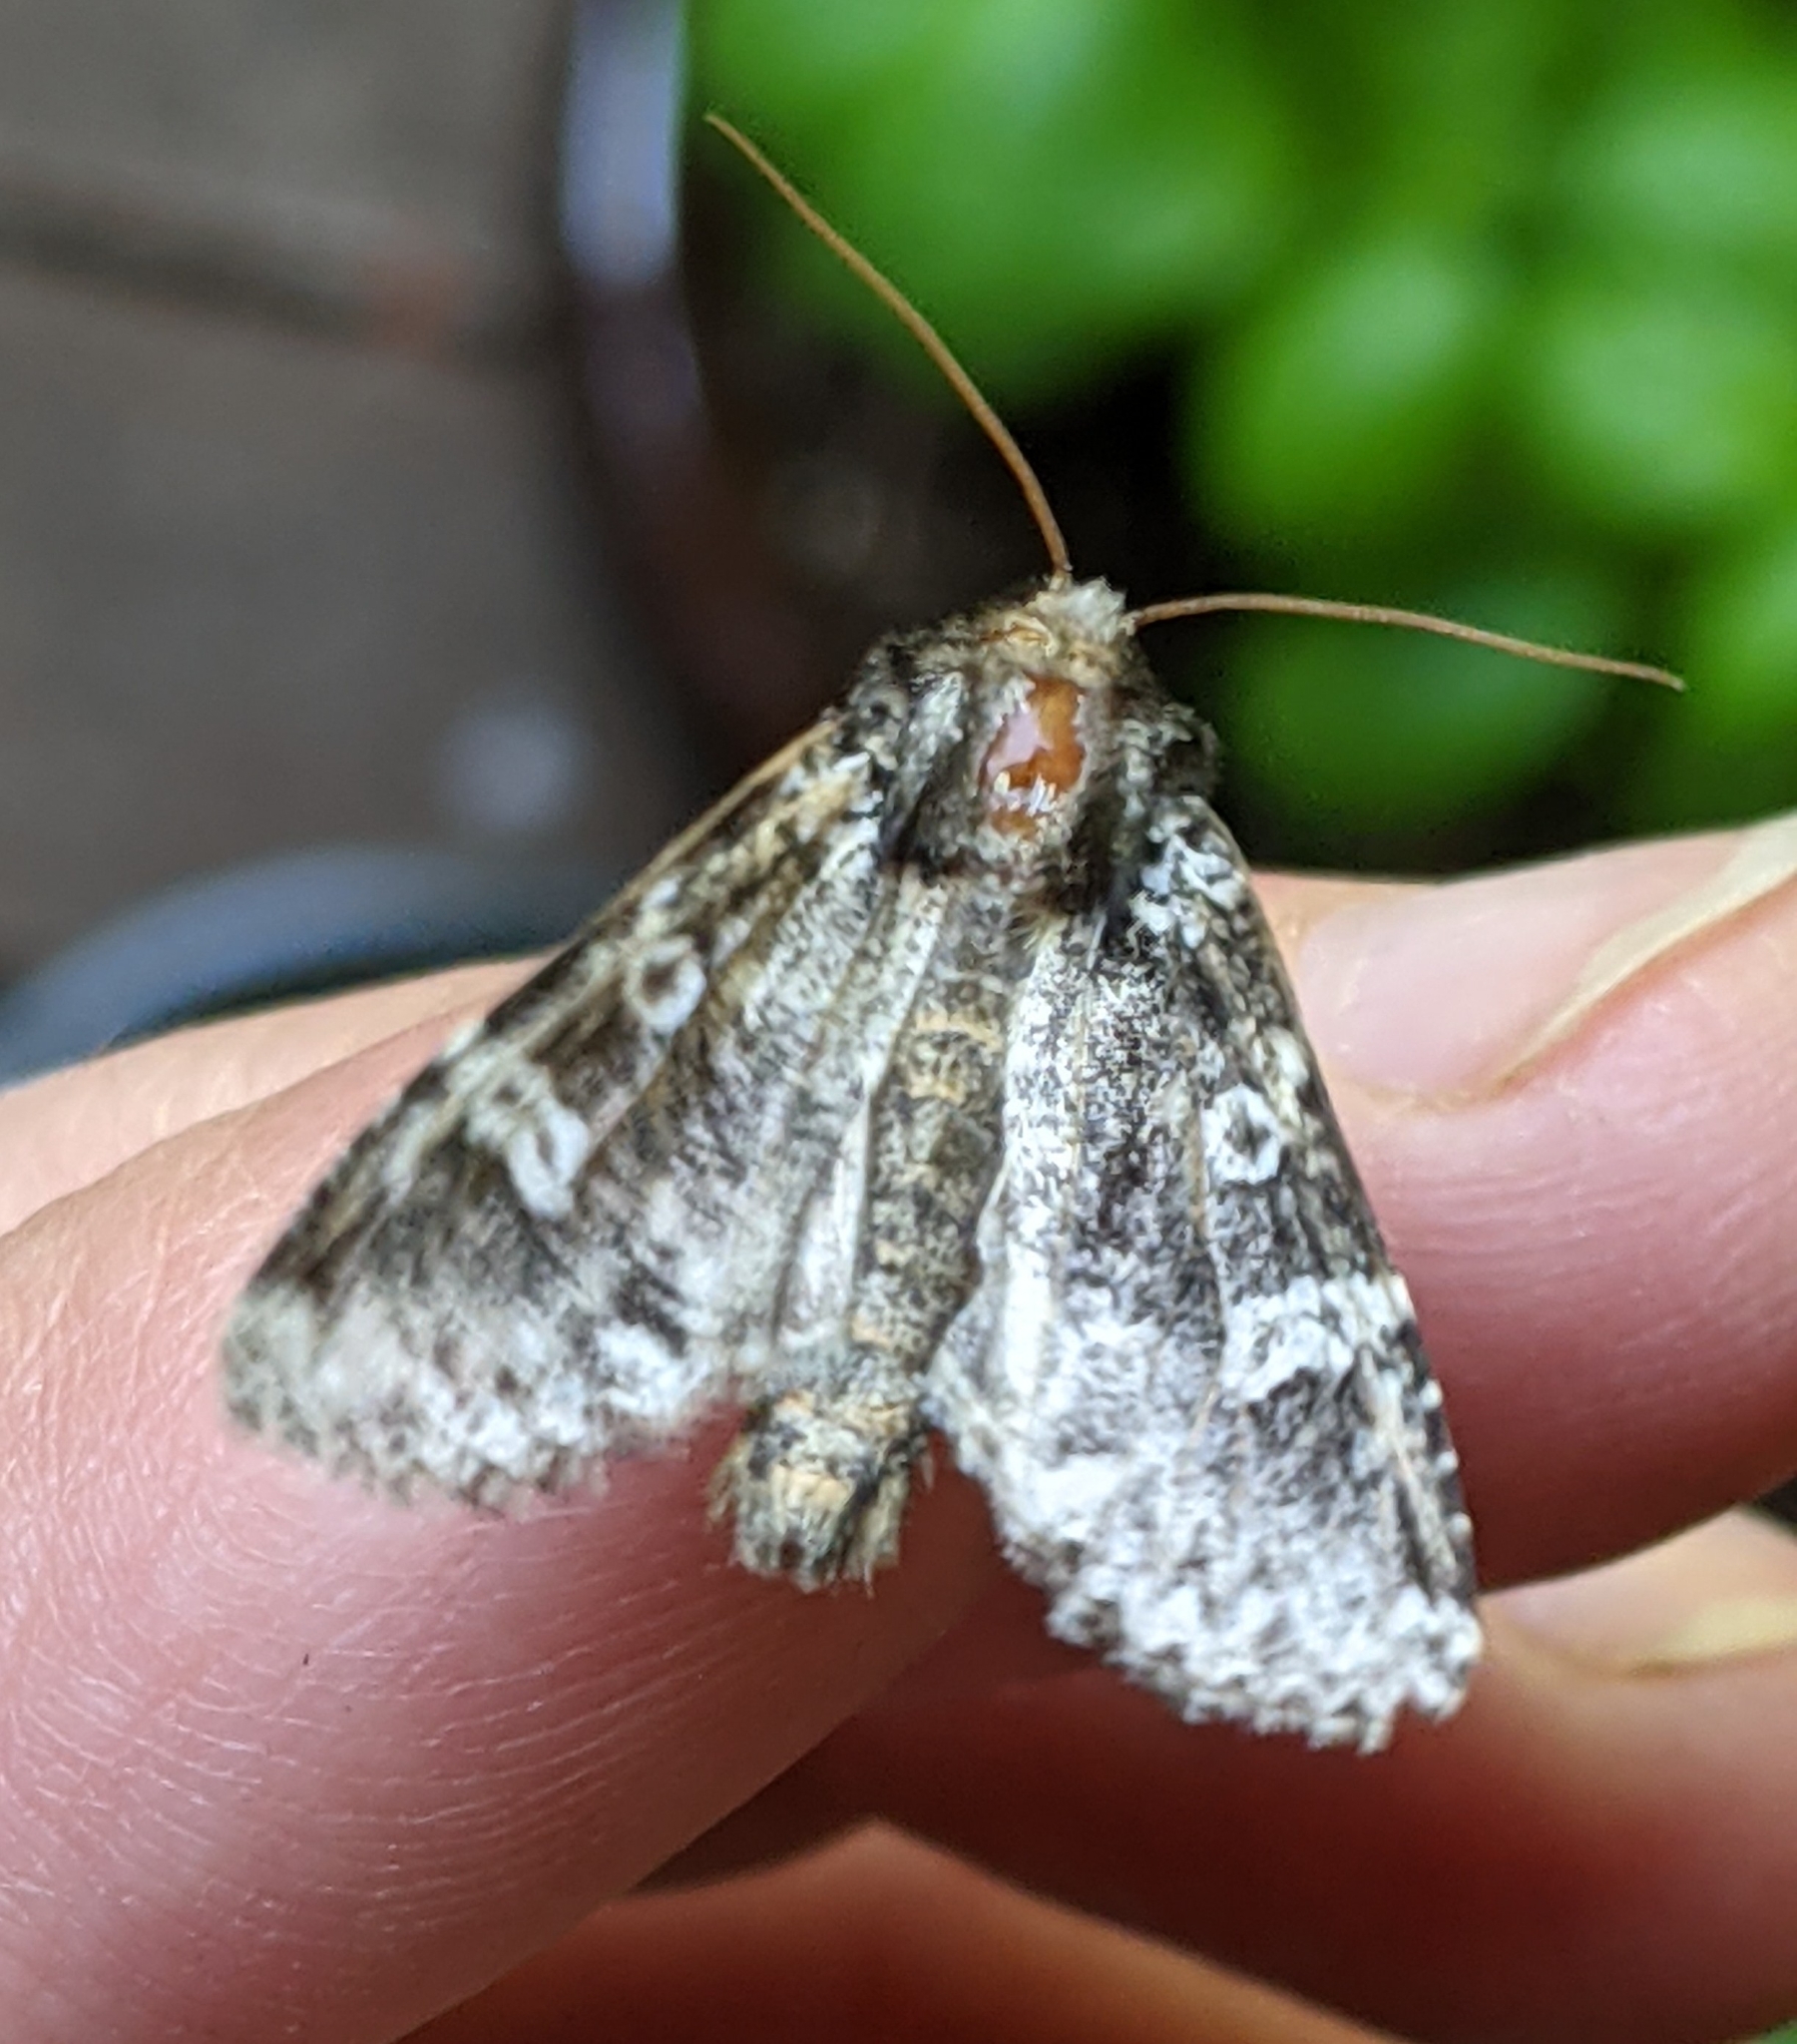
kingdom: Animalia
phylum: Arthropoda
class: Insecta
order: Lepidoptera
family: Noctuidae
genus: Melanchra
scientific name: Melanchra adjuncta
